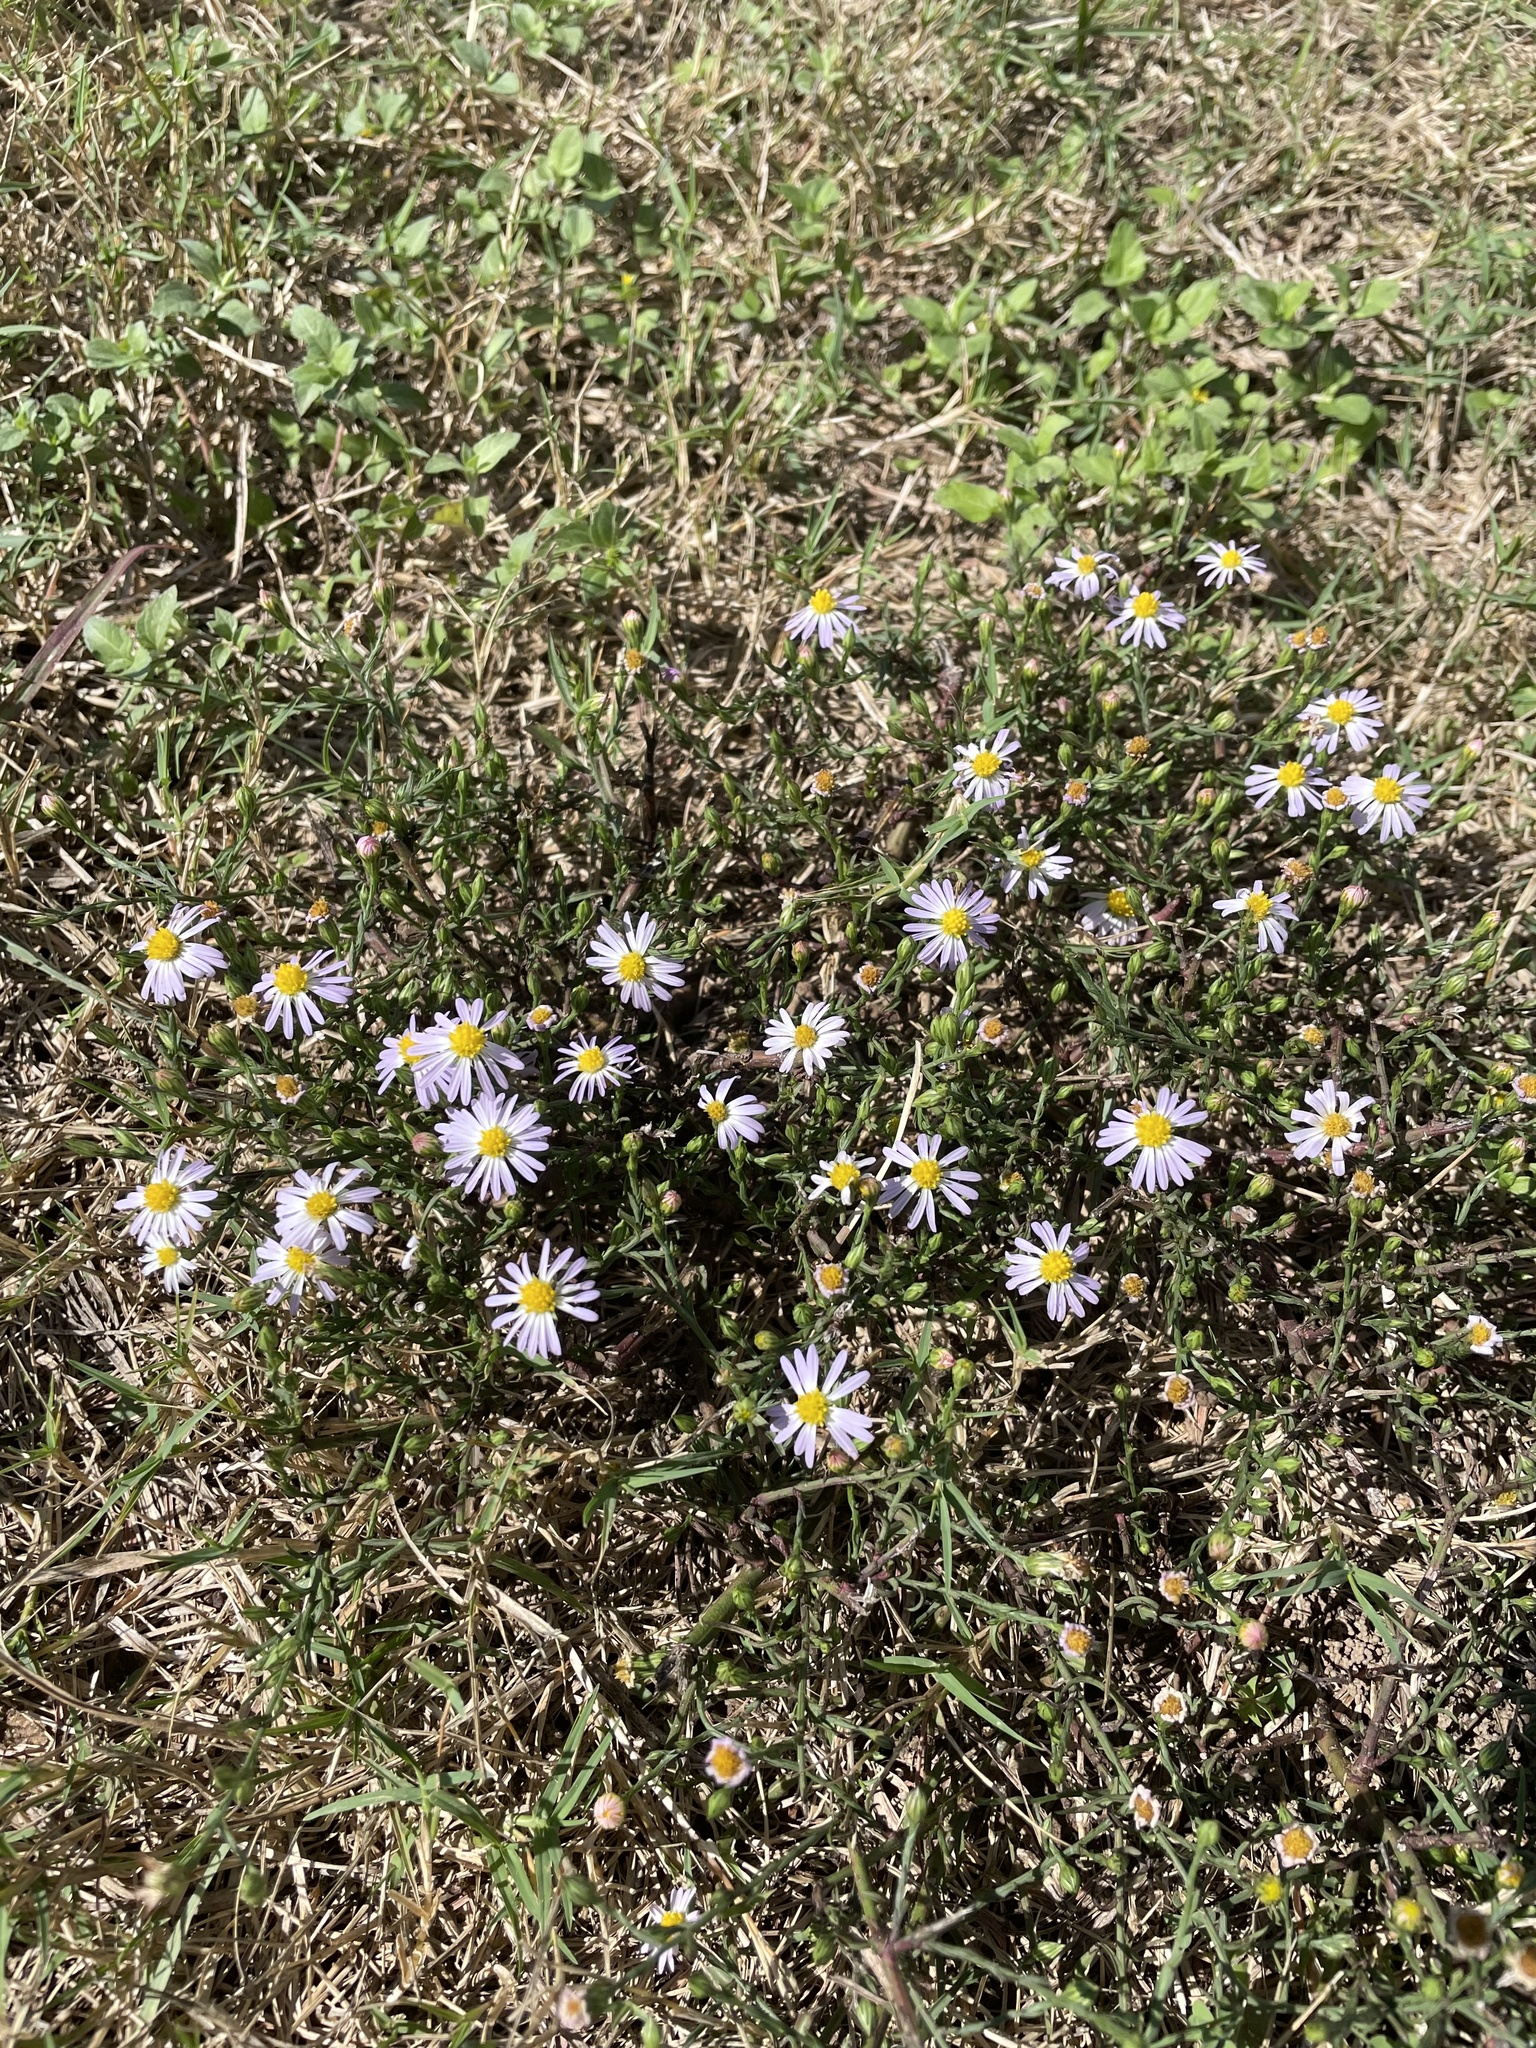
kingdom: Plantae
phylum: Tracheophyta
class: Magnoliopsida
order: Asterales
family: Asteraceae
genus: Symphyotrichum
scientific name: Symphyotrichum divaricatum
